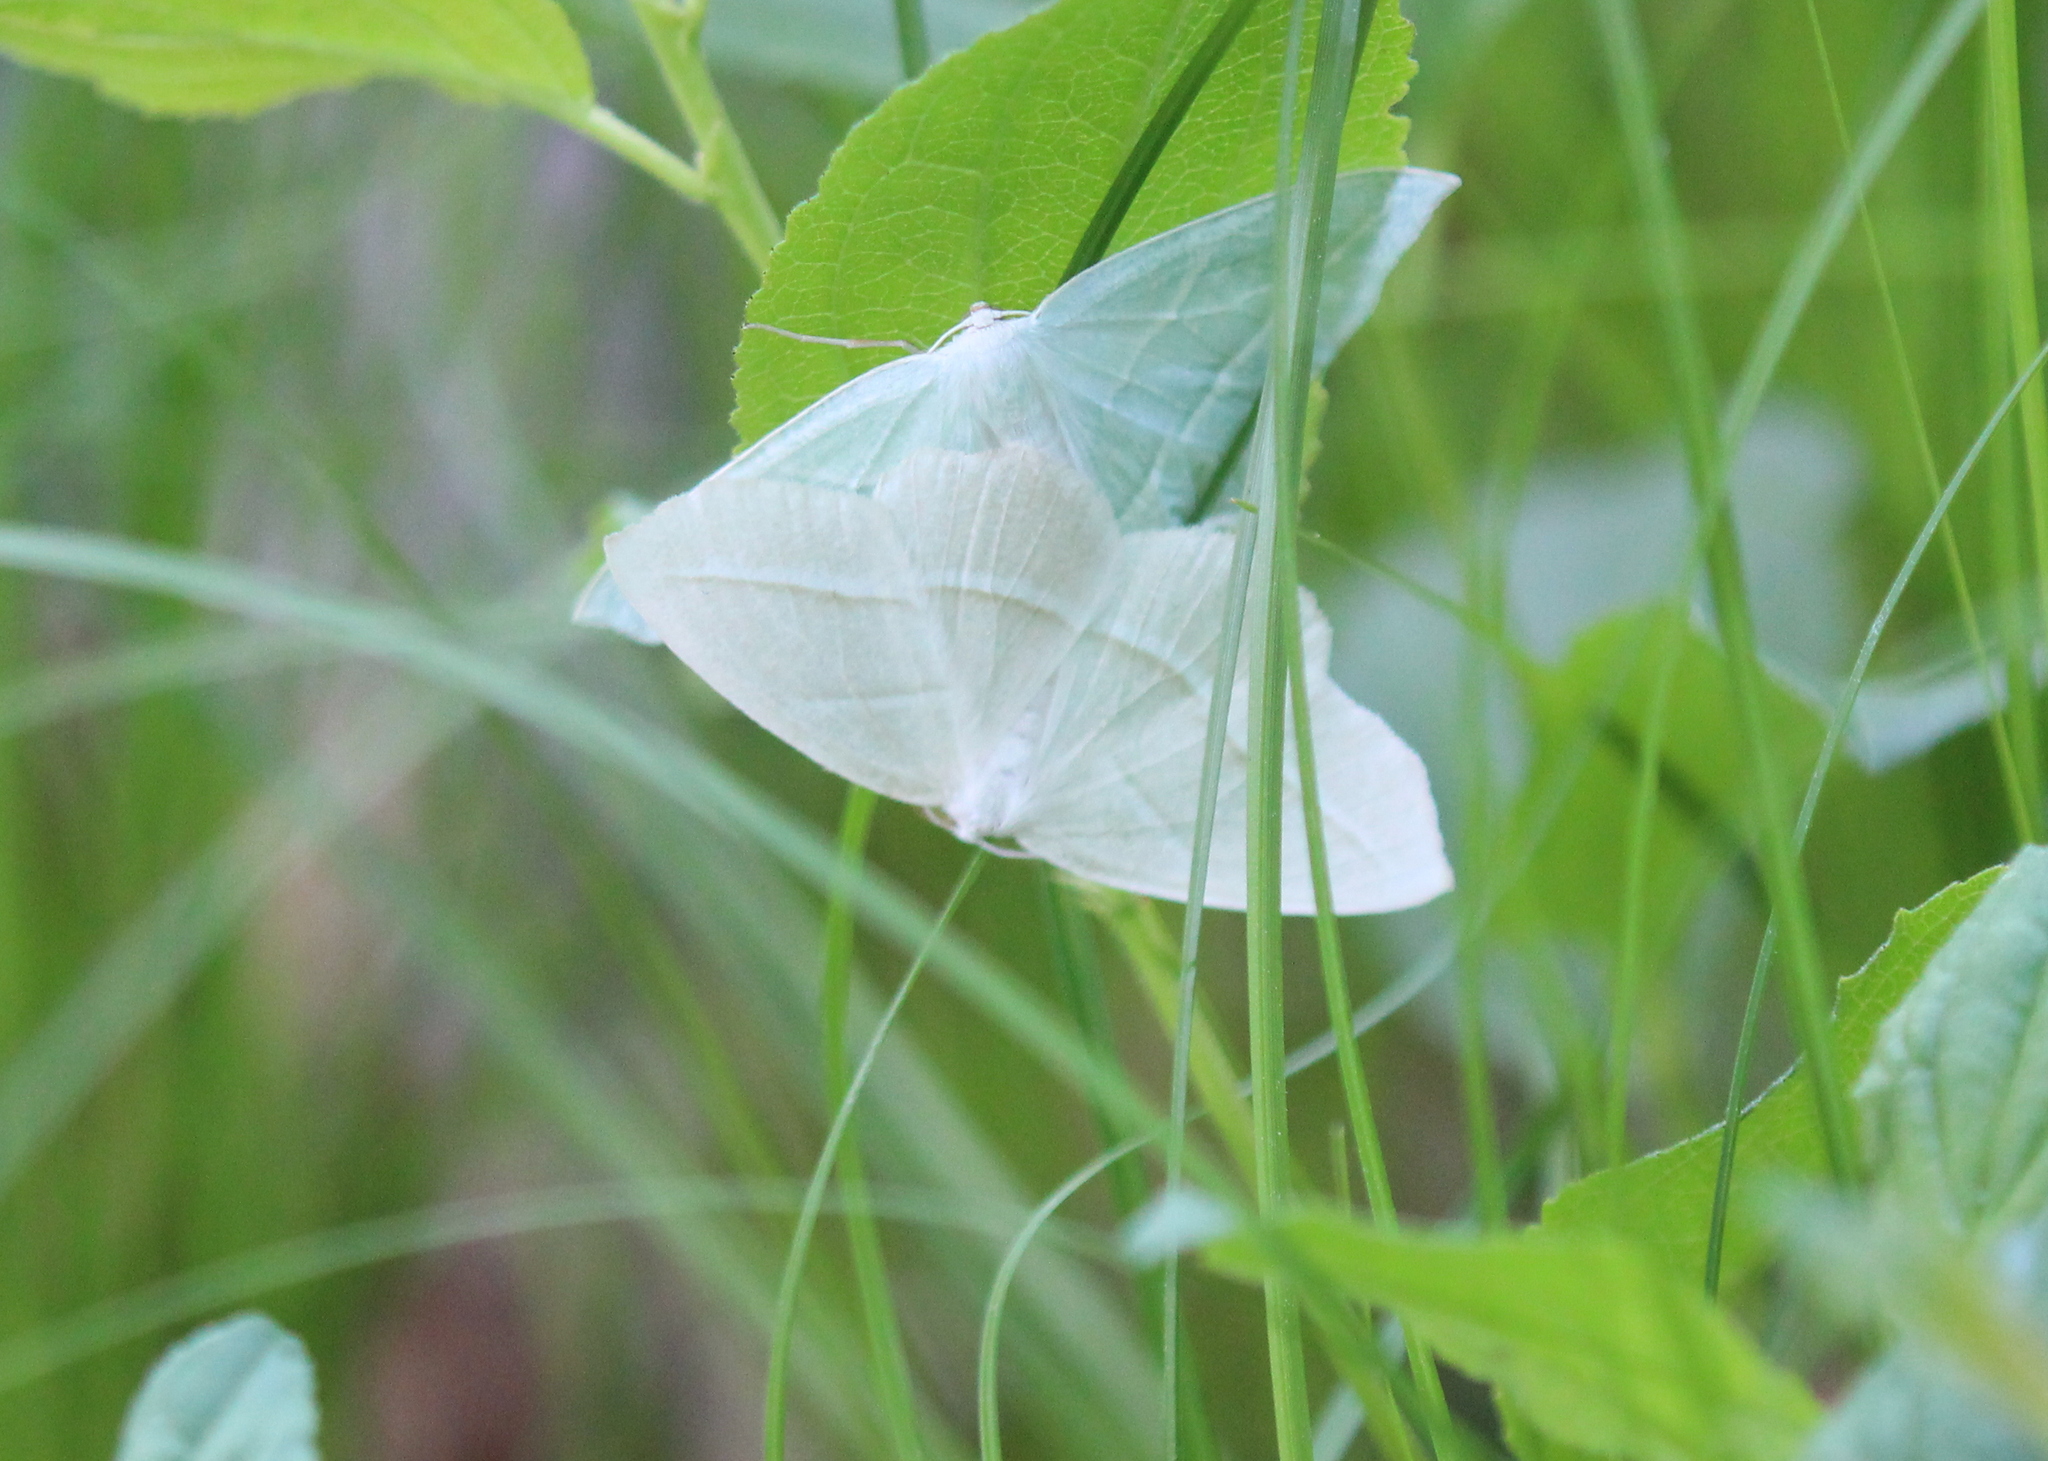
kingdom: Animalia
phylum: Arthropoda
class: Insecta
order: Lepidoptera
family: Geometridae
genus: Campaea
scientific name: Campaea perlata
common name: Fringed looper
